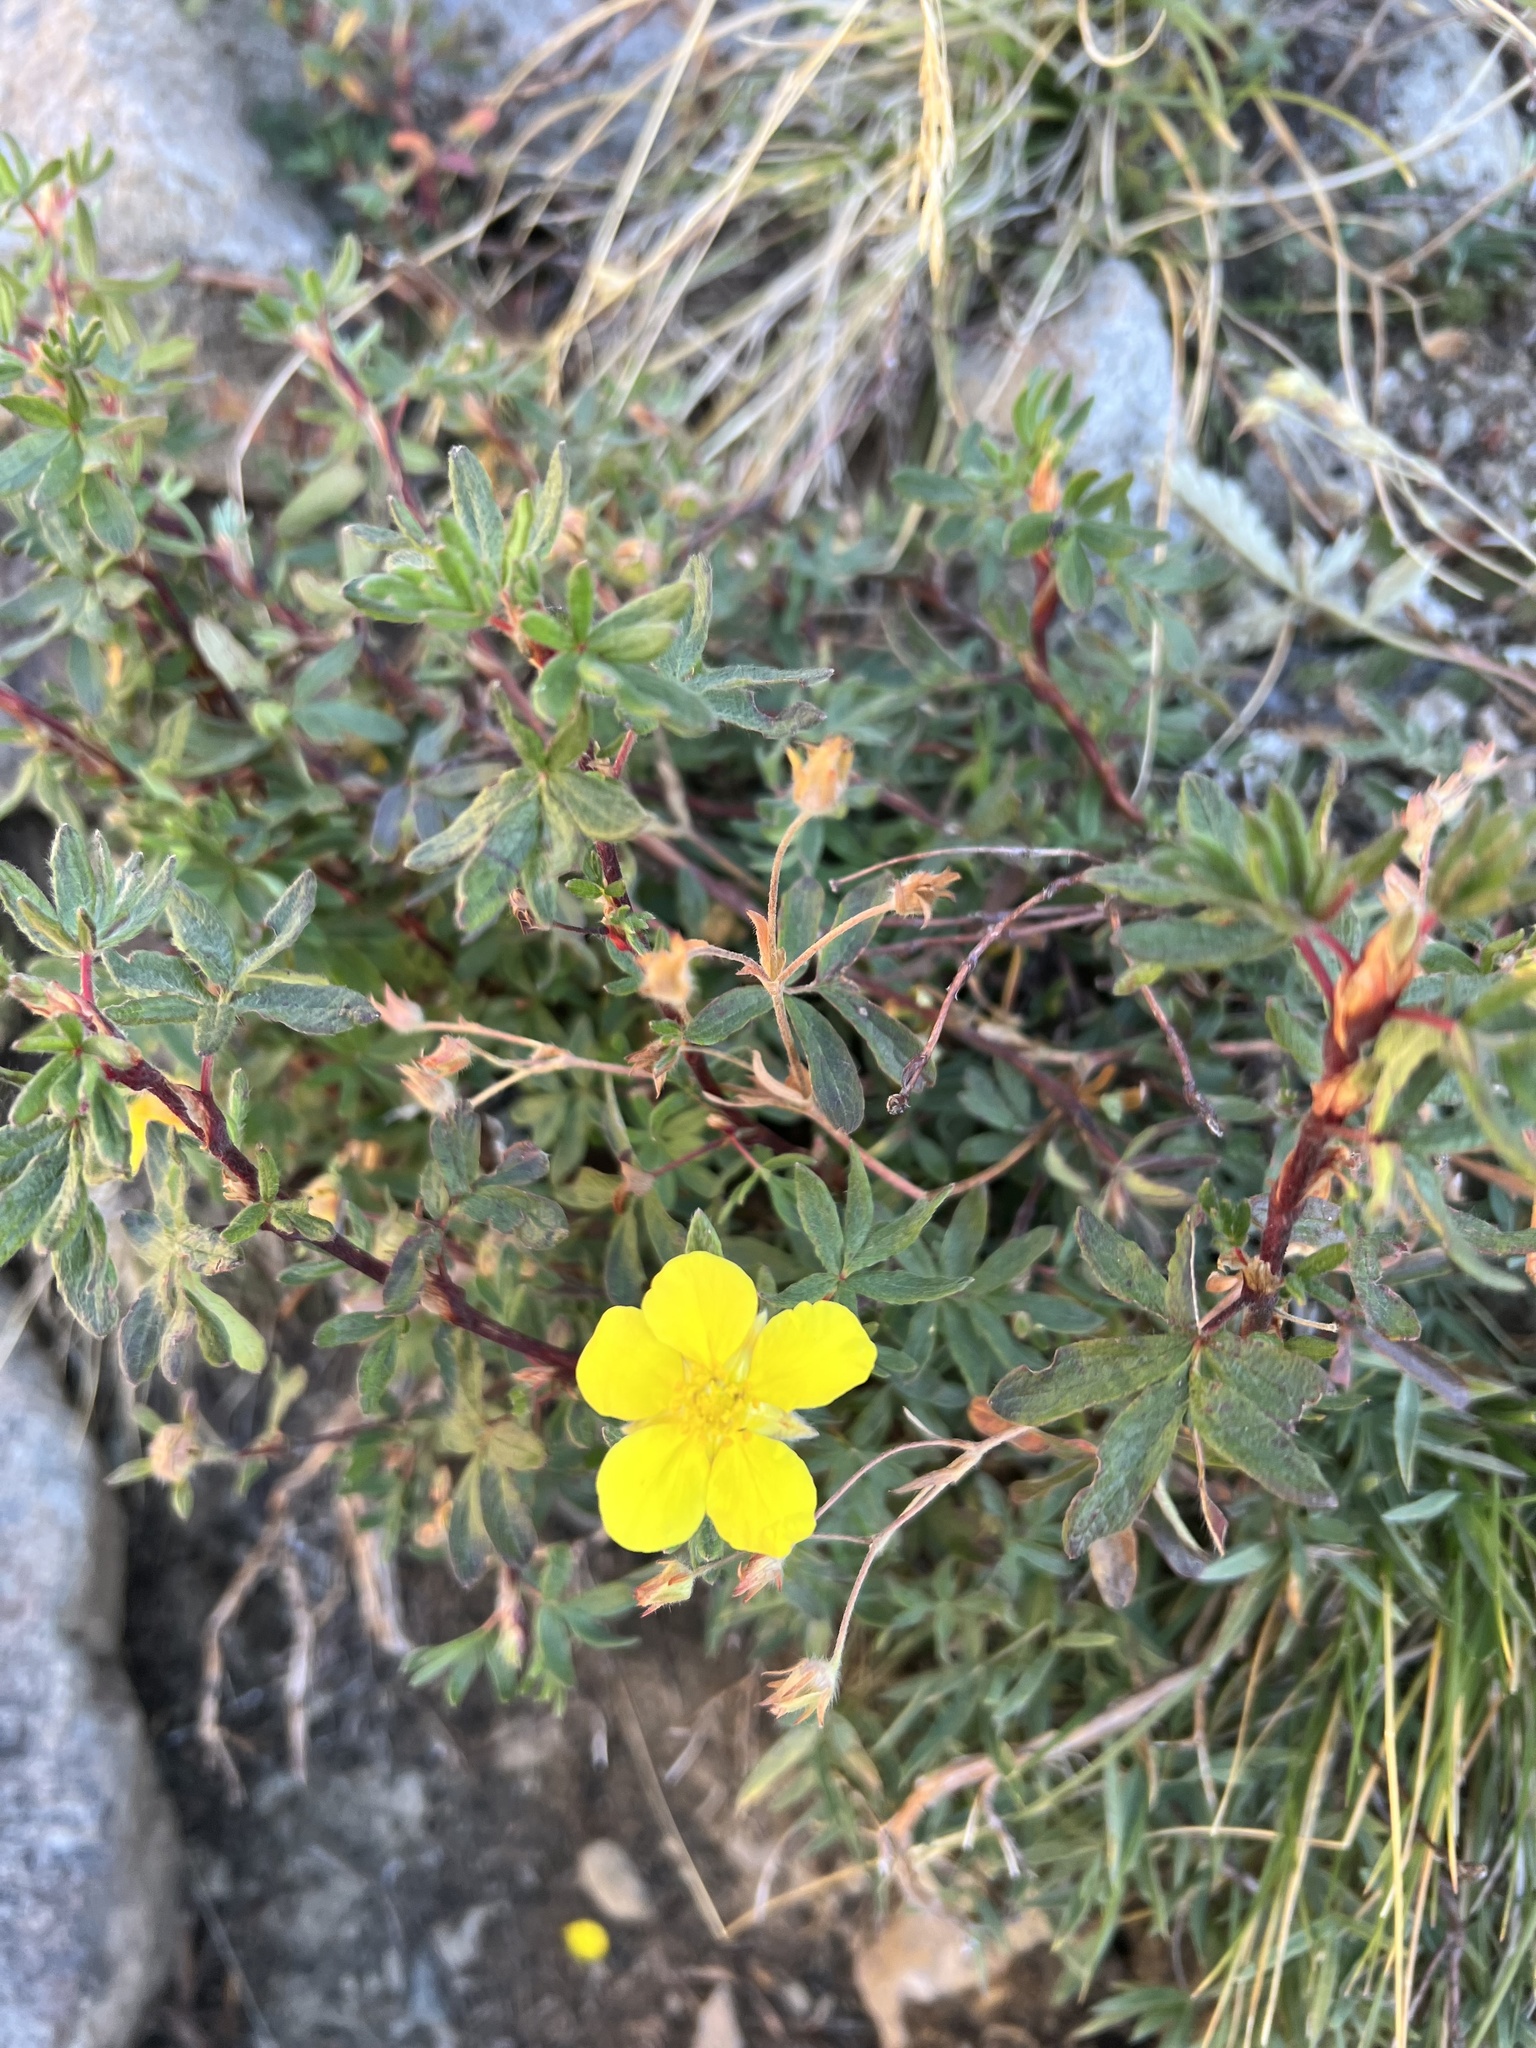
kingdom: Plantae
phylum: Tracheophyta
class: Magnoliopsida
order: Rosales
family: Rosaceae
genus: Dasiphora
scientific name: Dasiphora fruticosa
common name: Shrubby cinquefoil
